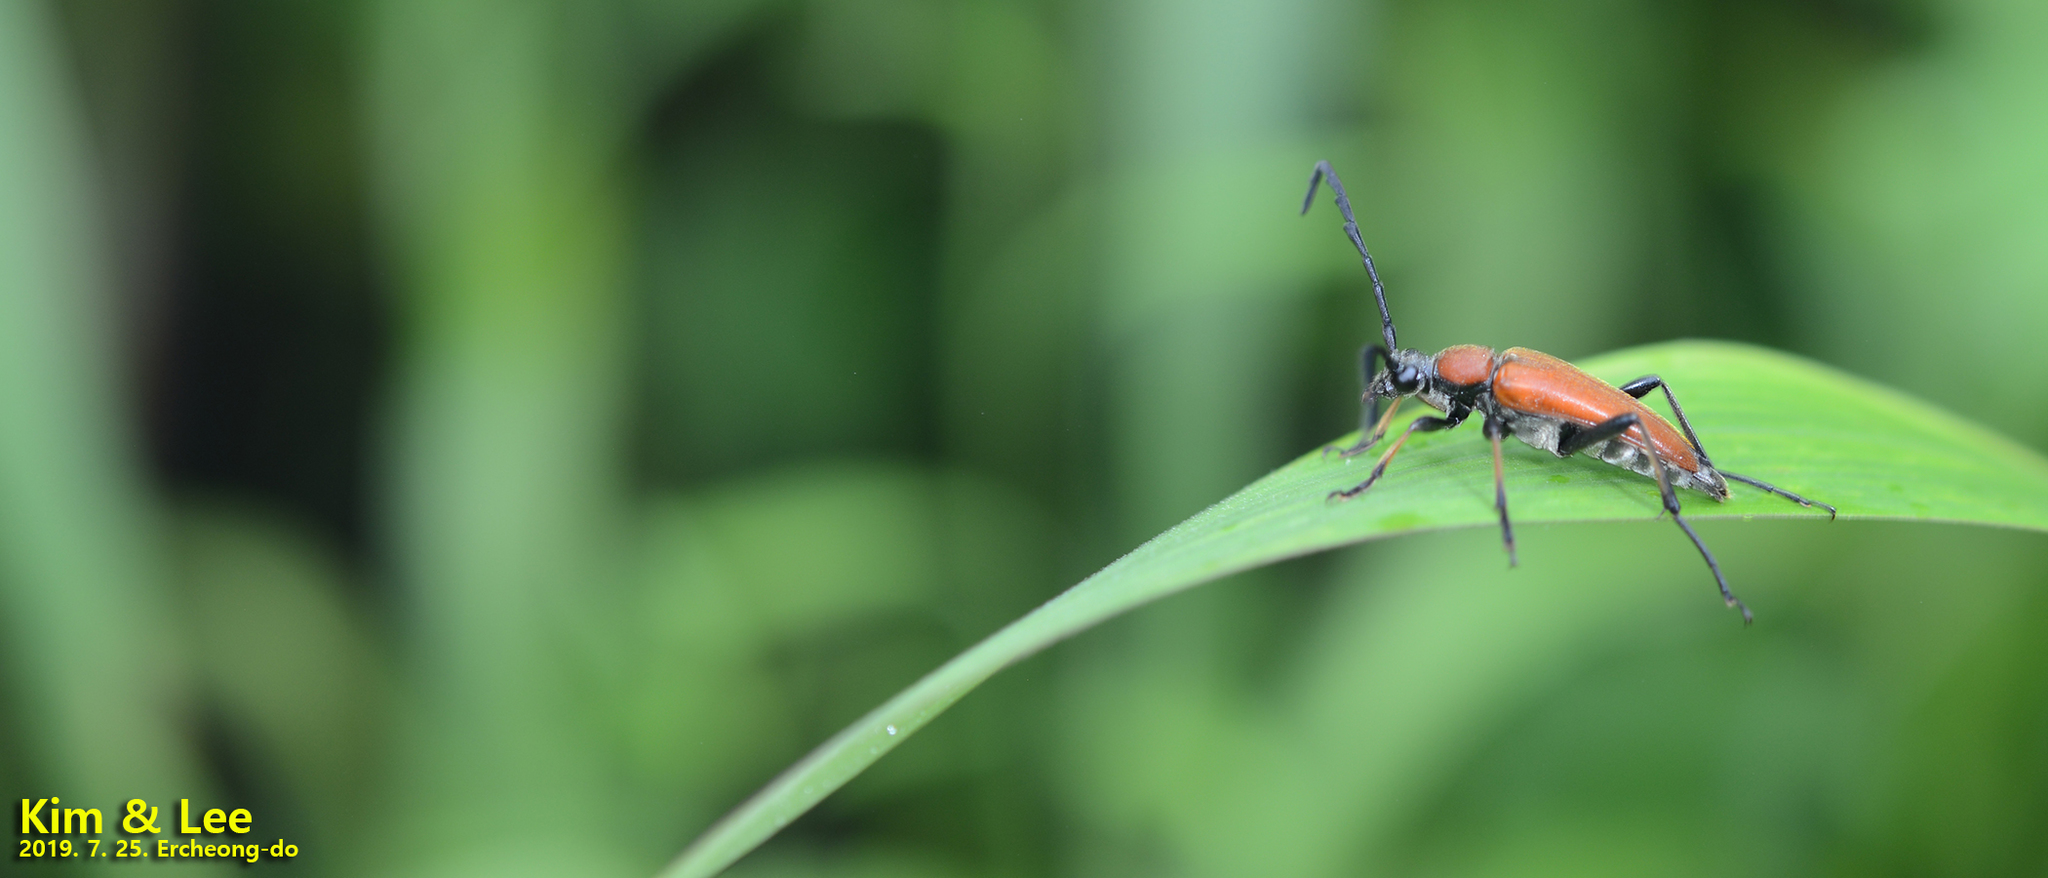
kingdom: Animalia
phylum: Arthropoda
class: Insecta
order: Coleoptera
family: Cerambycidae
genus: Stictoleptura
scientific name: Stictoleptura dichroa
